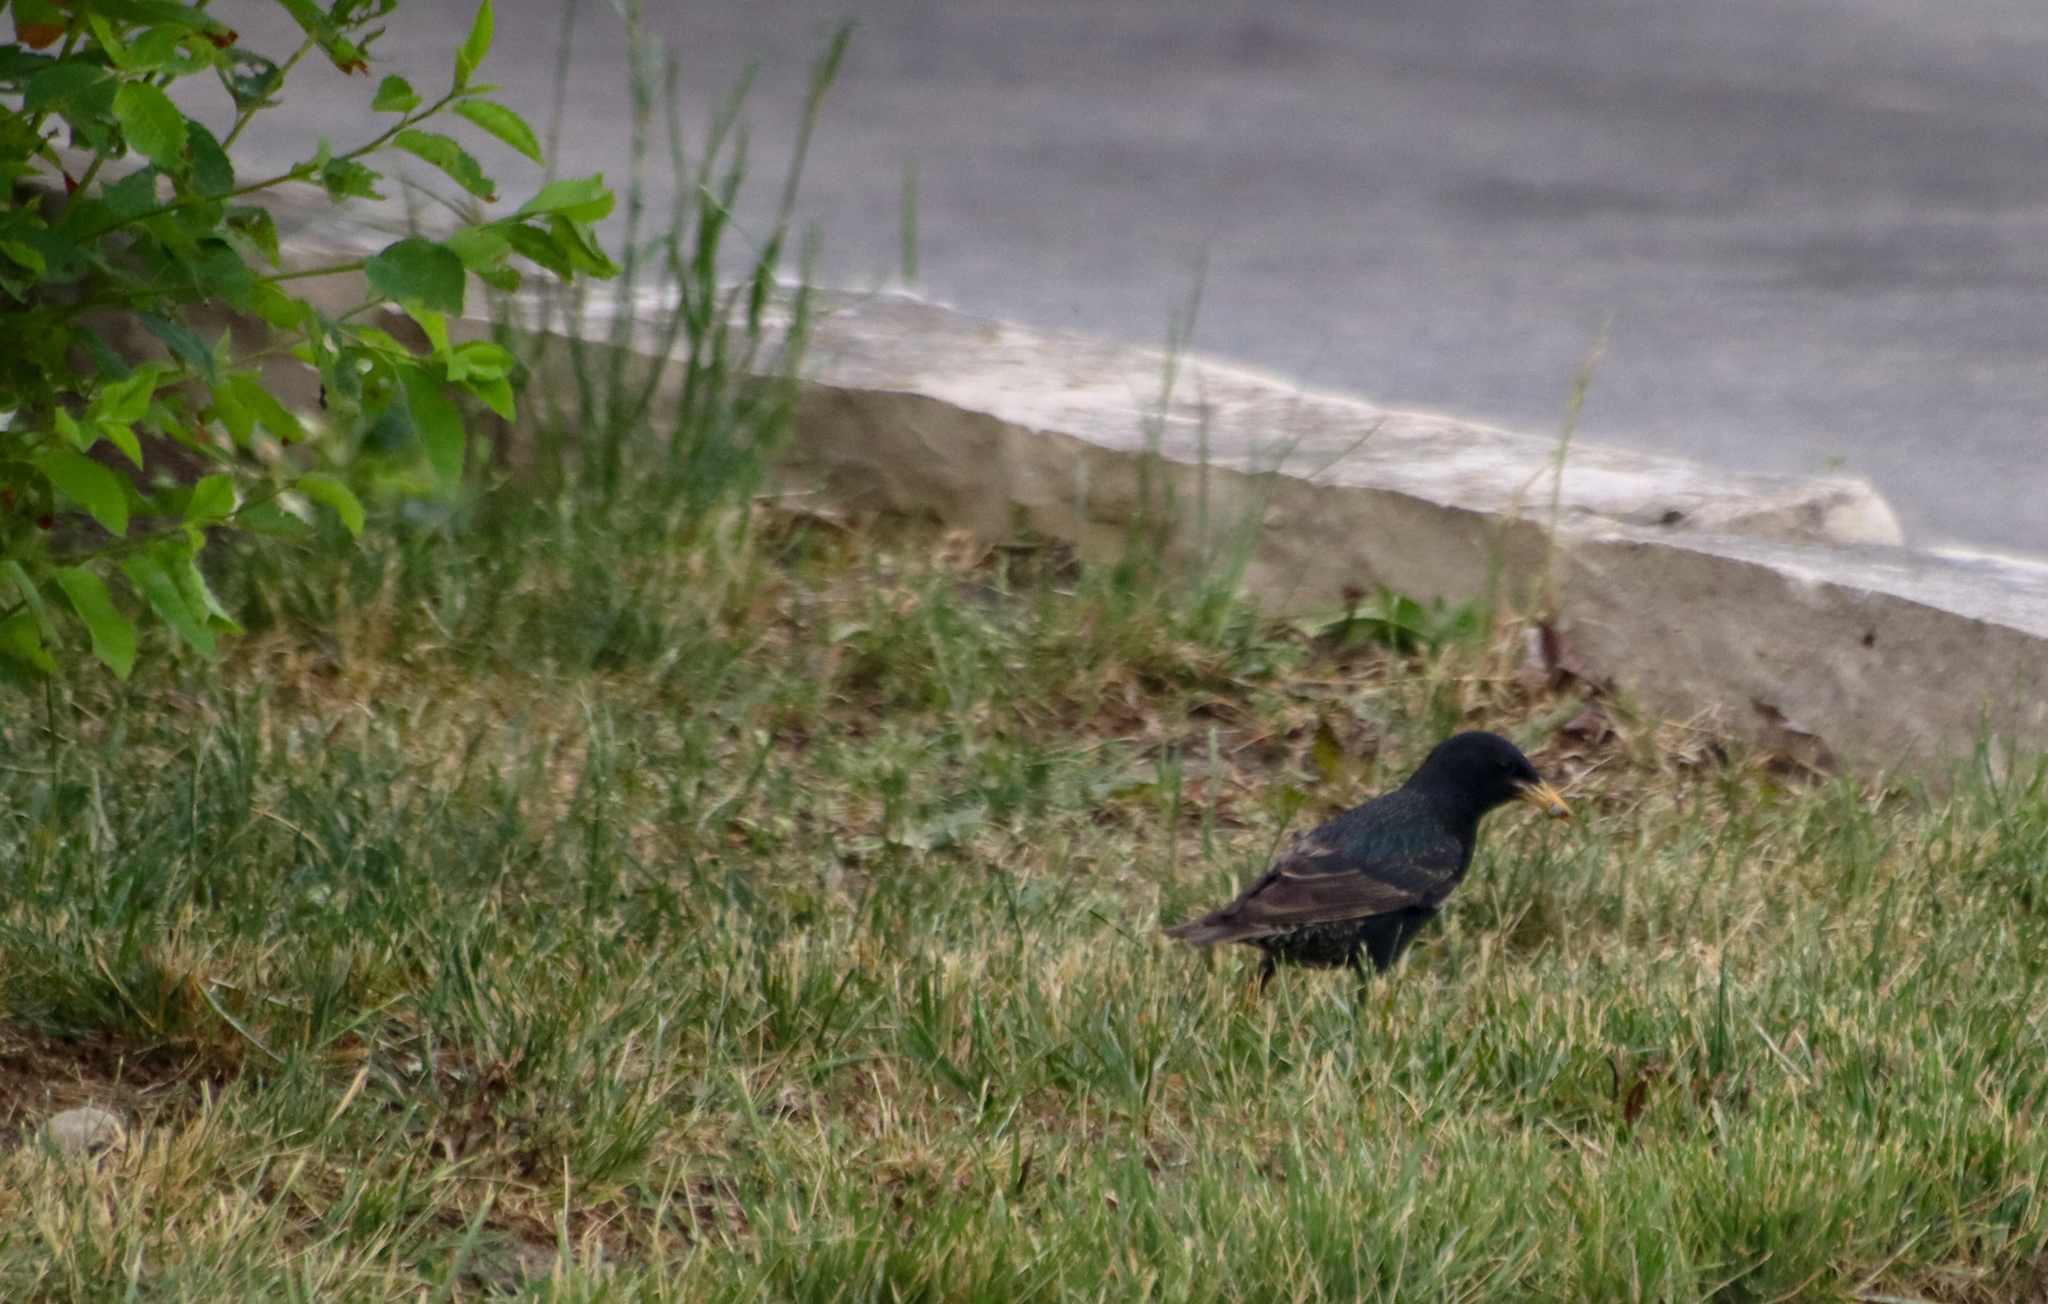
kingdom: Animalia
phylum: Chordata
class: Aves
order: Passeriformes
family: Sturnidae
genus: Sturnus
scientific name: Sturnus vulgaris
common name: Common starling
